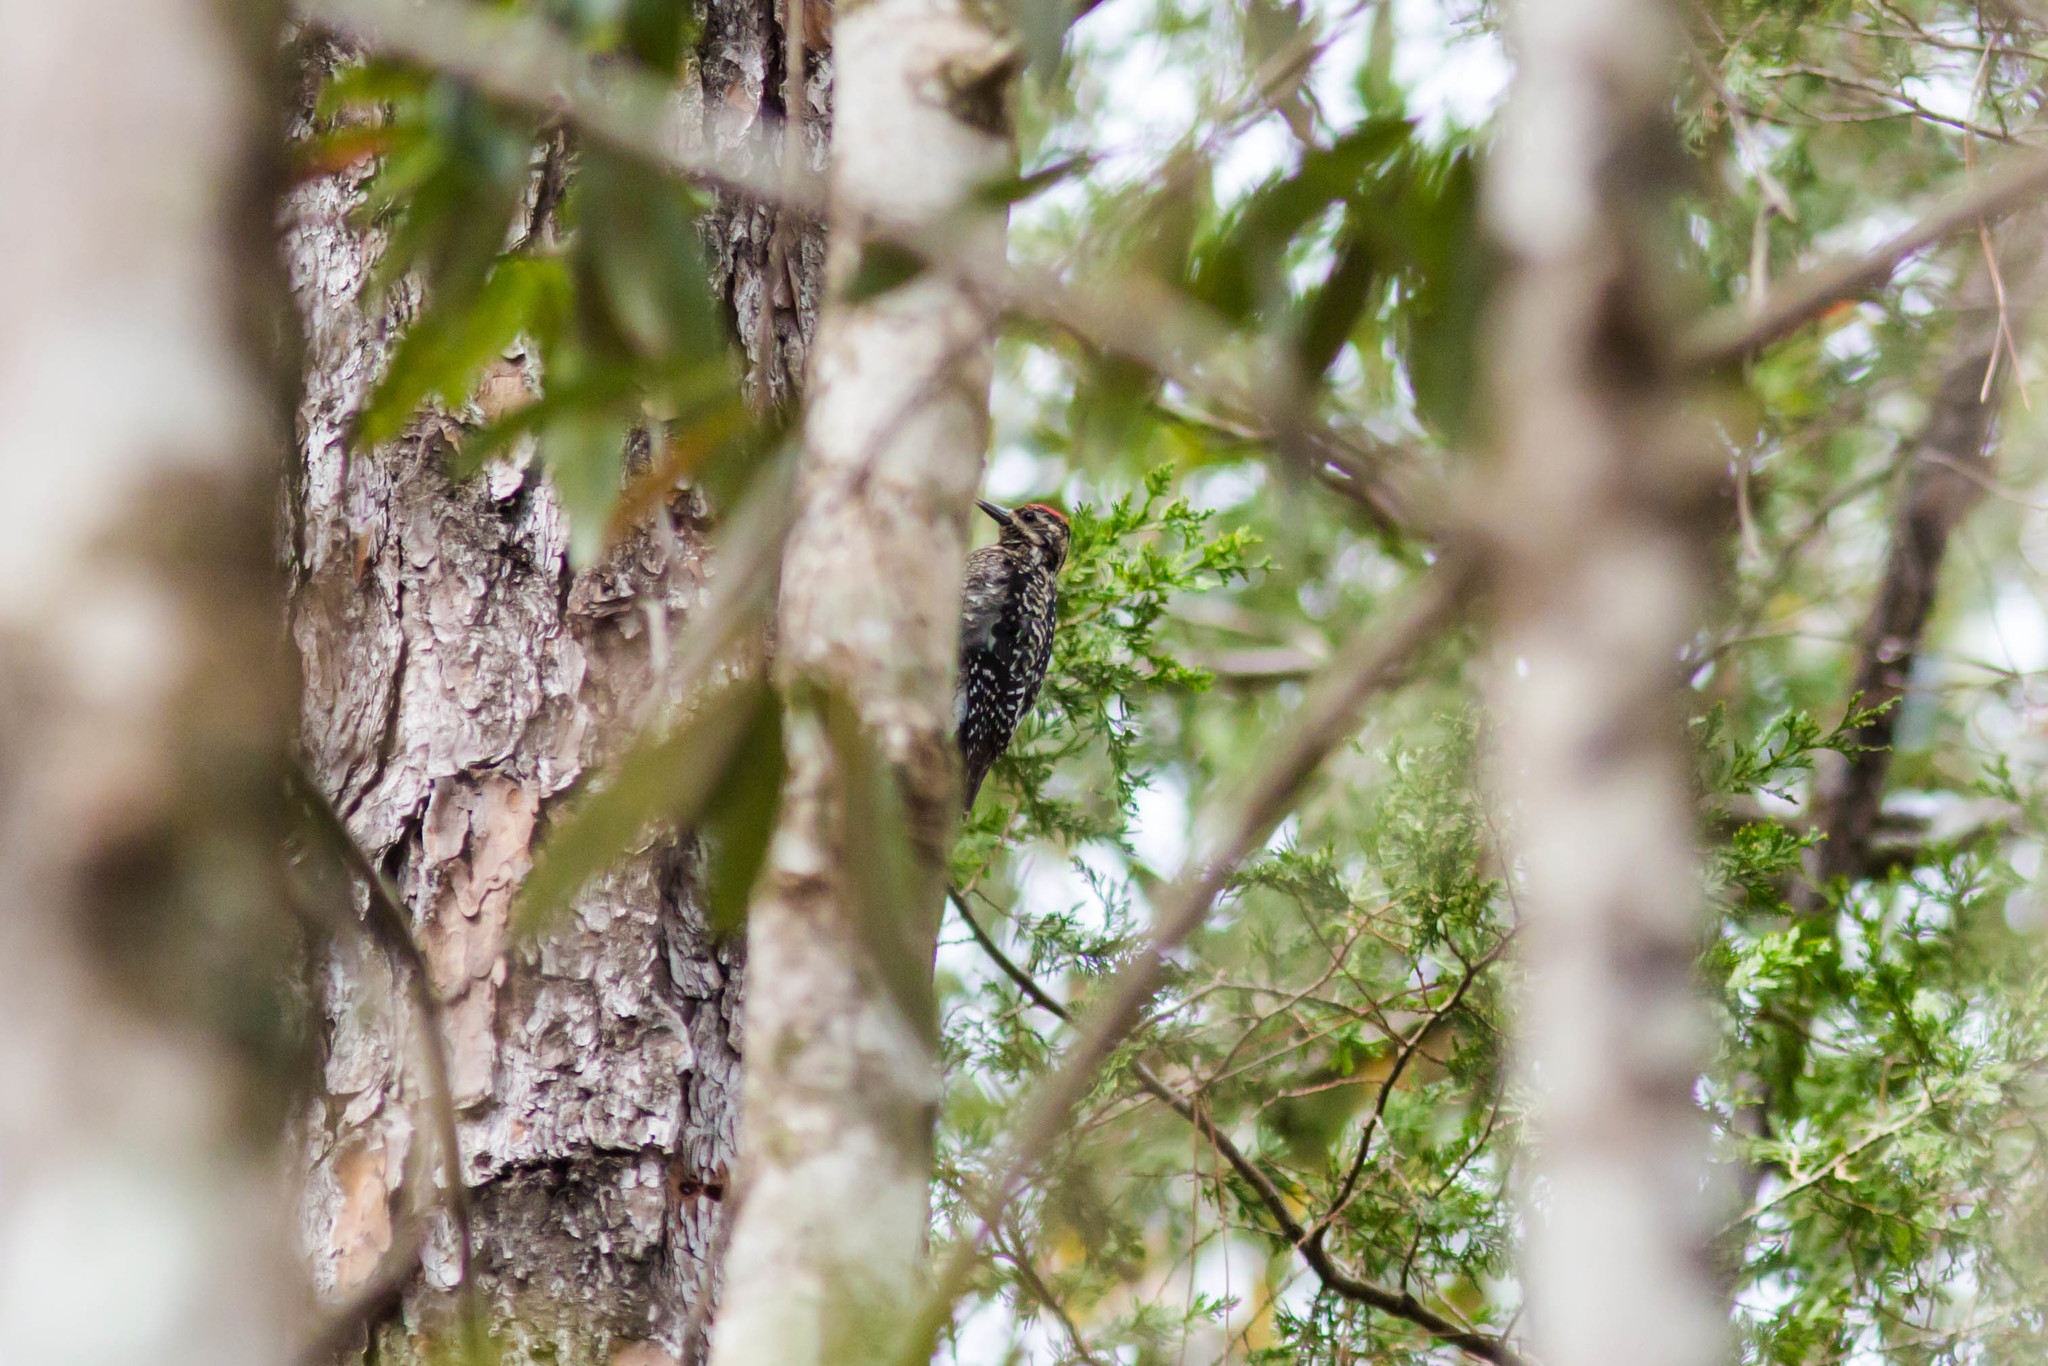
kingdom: Animalia
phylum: Chordata
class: Aves
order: Piciformes
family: Picidae
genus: Sphyrapicus
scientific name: Sphyrapicus varius
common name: Yellow-bellied sapsucker
